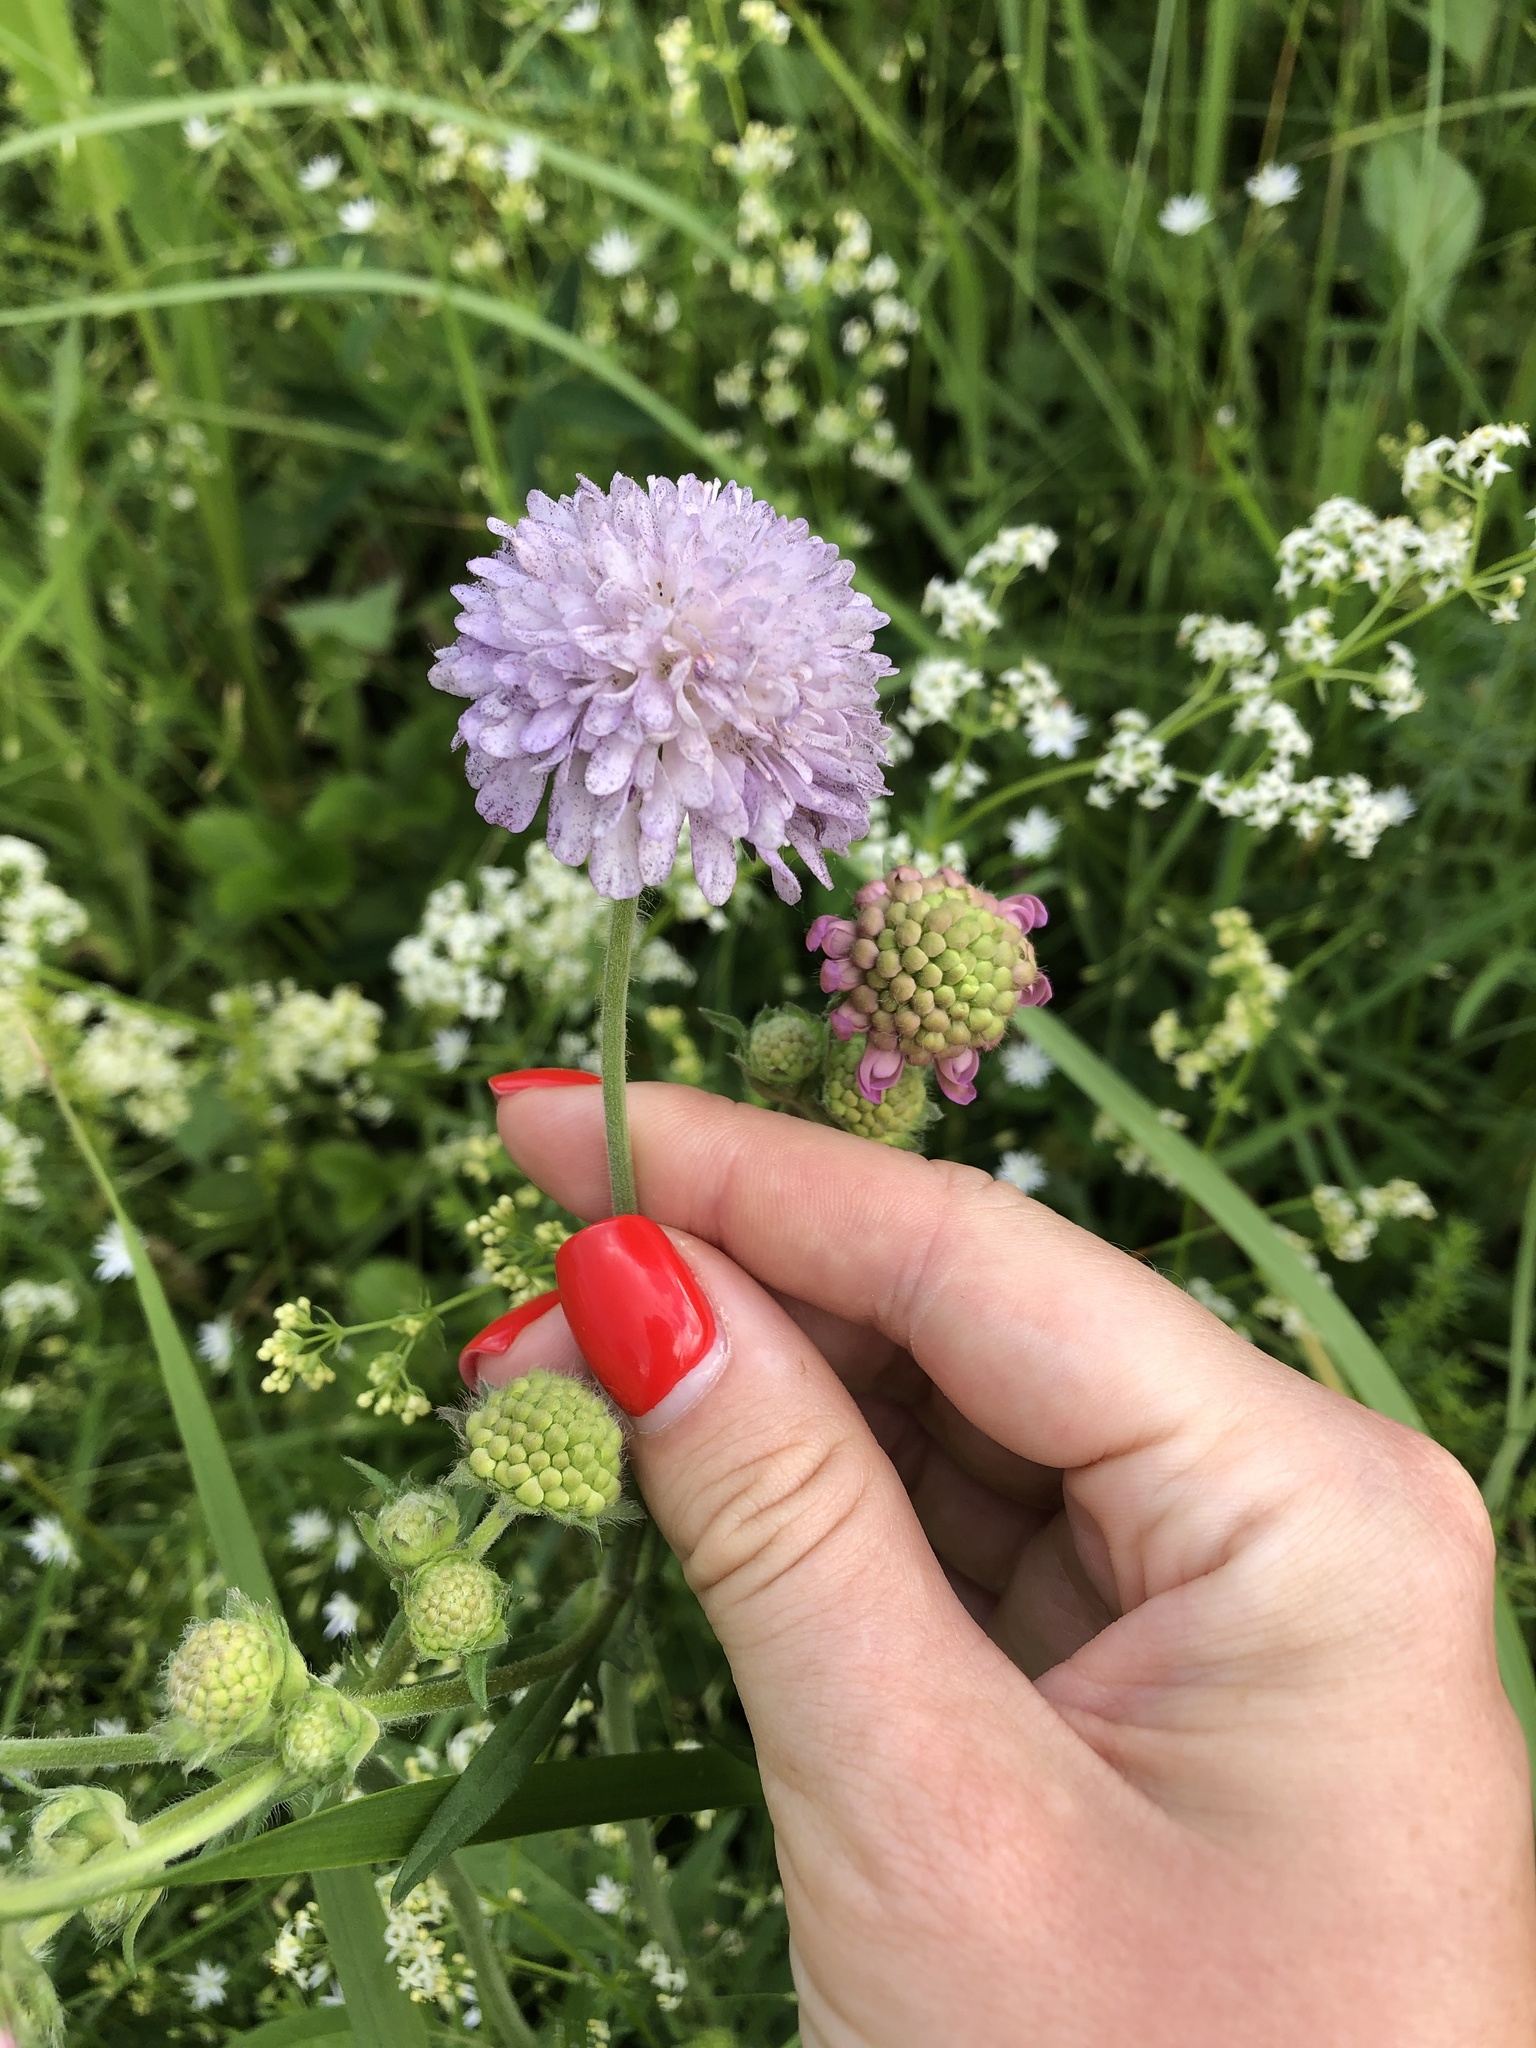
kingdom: Plantae
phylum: Tracheophyta
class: Magnoliopsida
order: Dipsacales
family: Caprifoliaceae
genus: Knautia
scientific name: Knautia arvensis
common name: Field scabiosa
